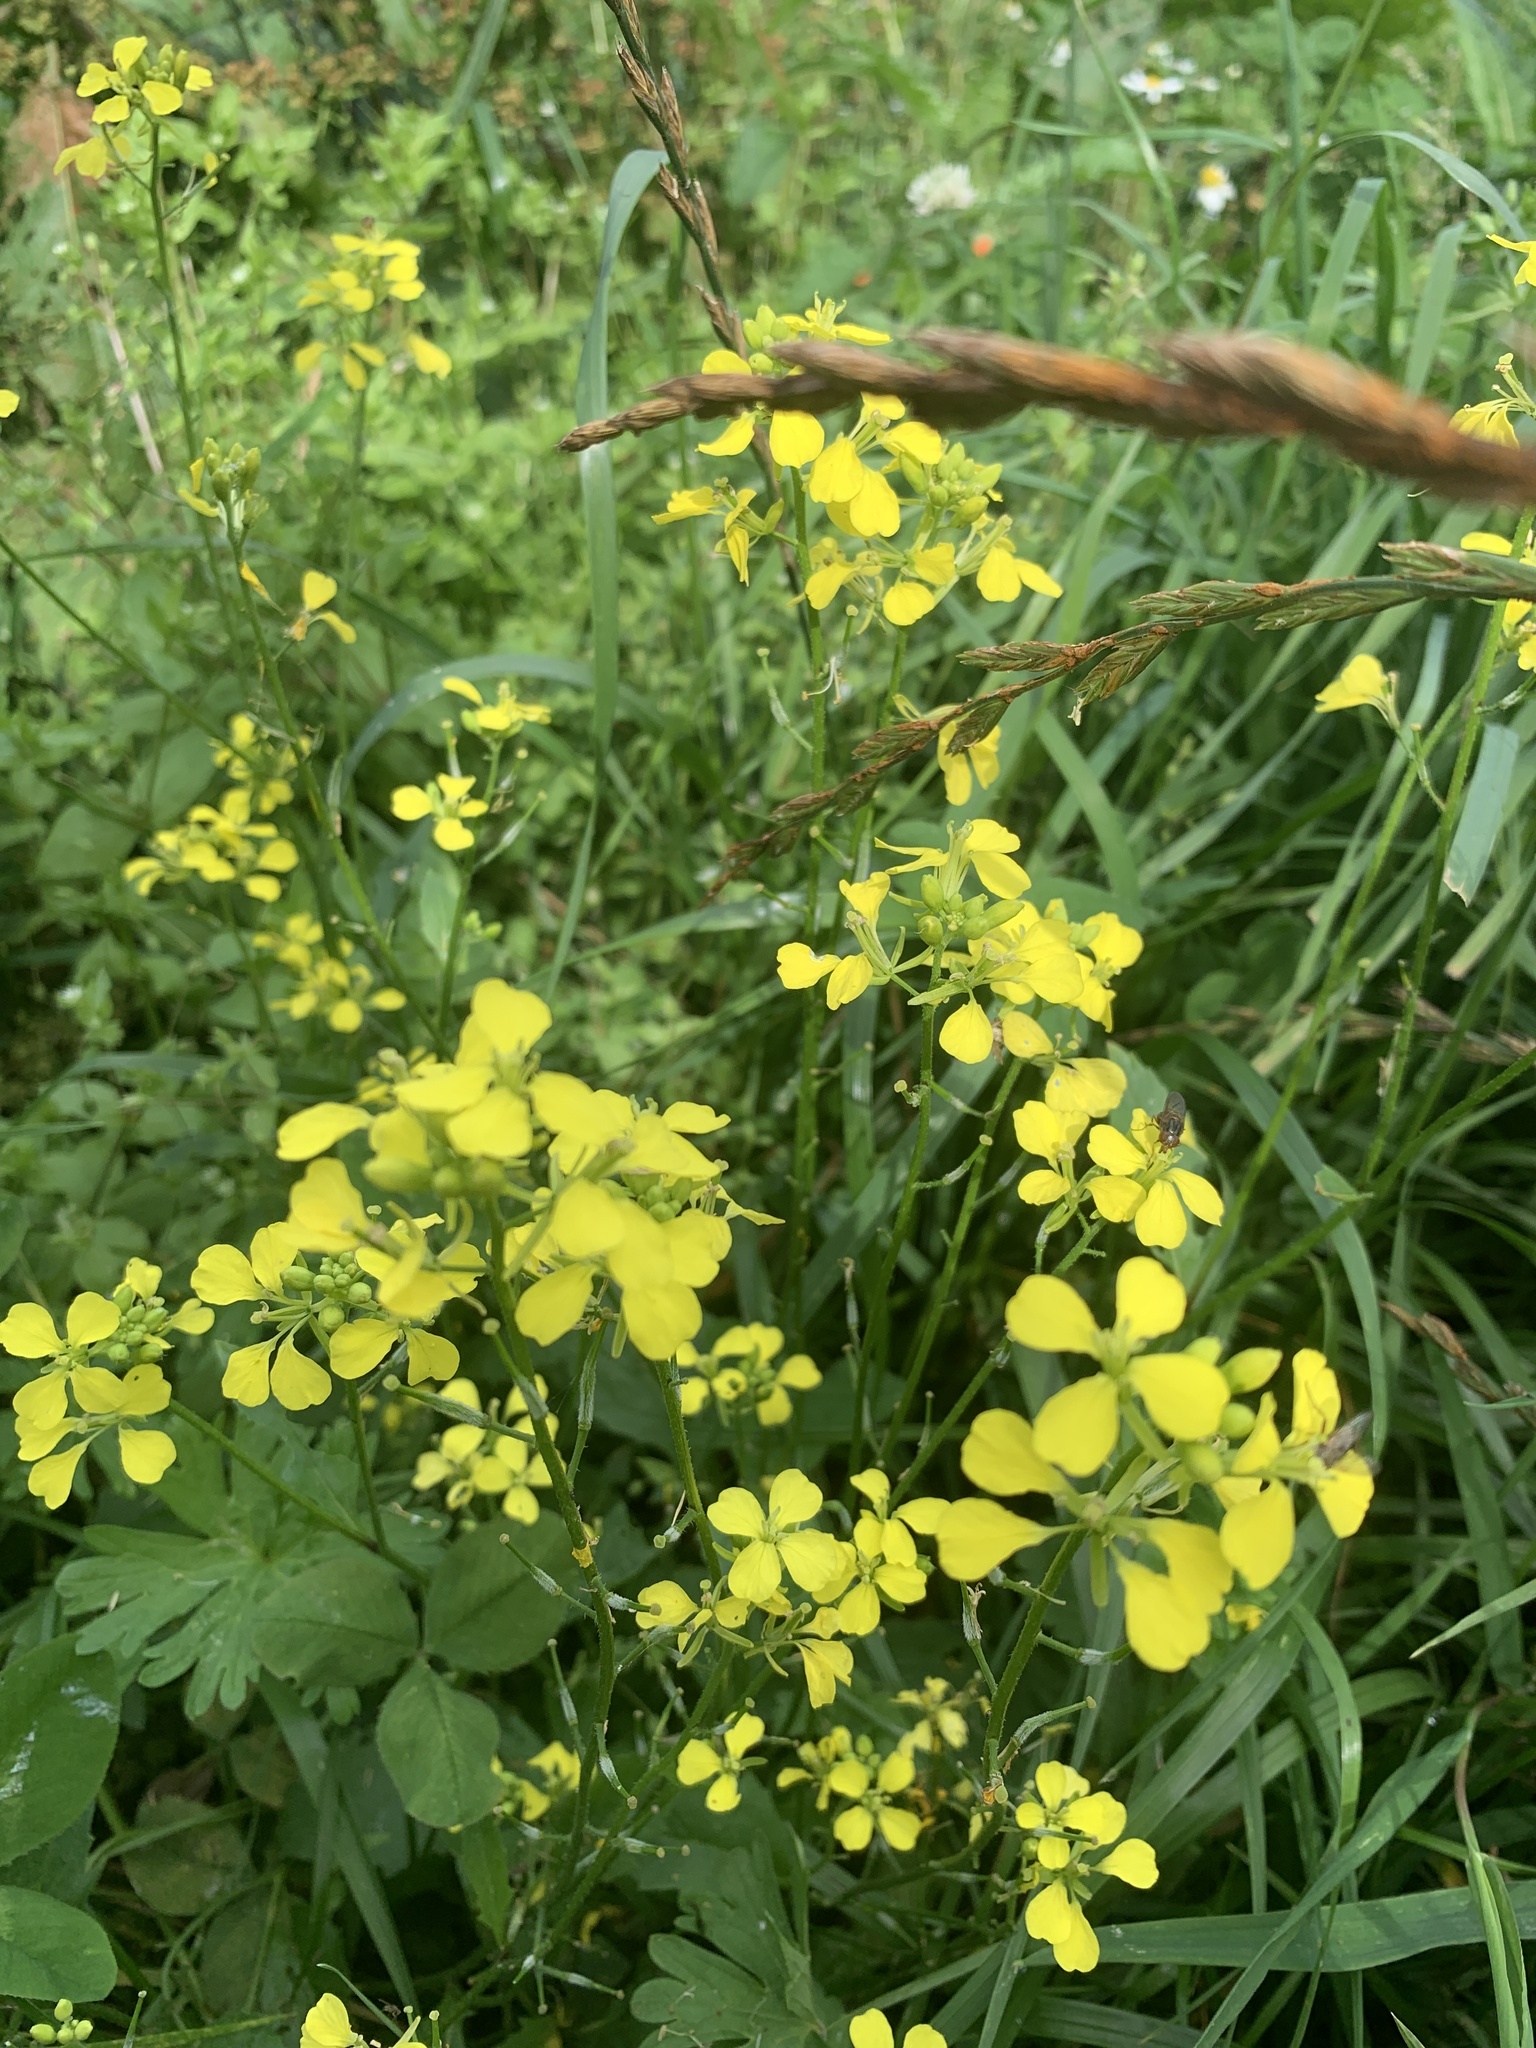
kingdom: Plantae
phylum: Tracheophyta
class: Magnoliopsida
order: Brassicales
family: Brassicaceae
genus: Sinapis
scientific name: Sinapis arvensis
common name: Charlock
